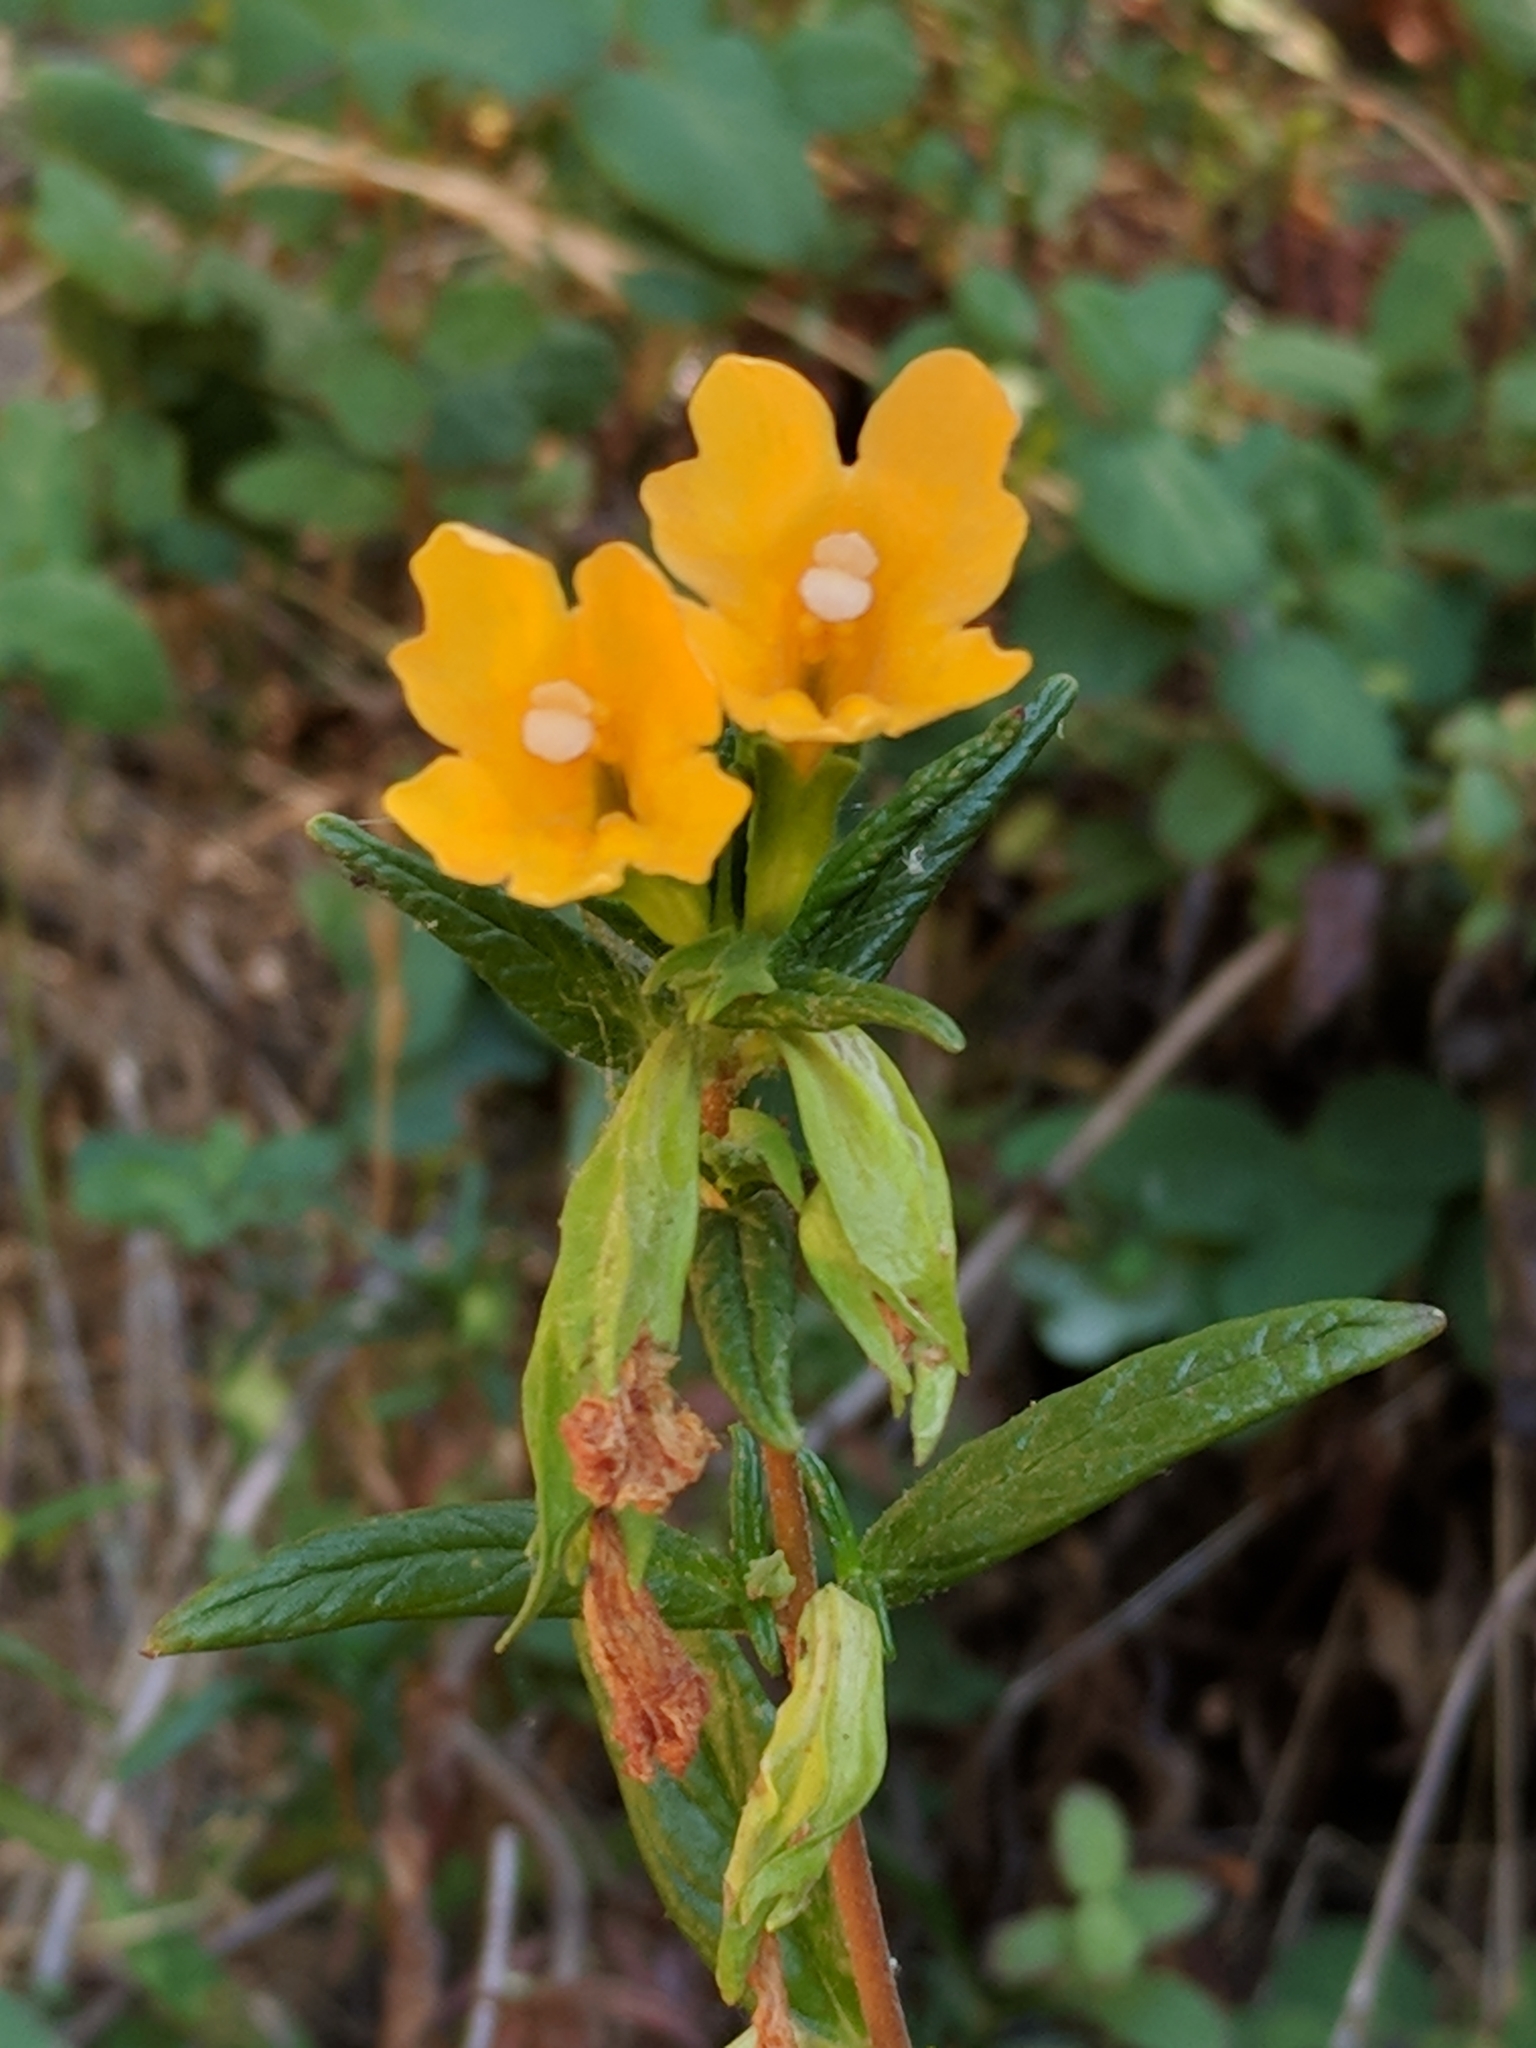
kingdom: Plantae
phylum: Tracheophyta
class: Magnoliopsida
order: Lamiales
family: Phrymaceae
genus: Diplacus
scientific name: Diplacus aurantiacus
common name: Bush monkey-flower
